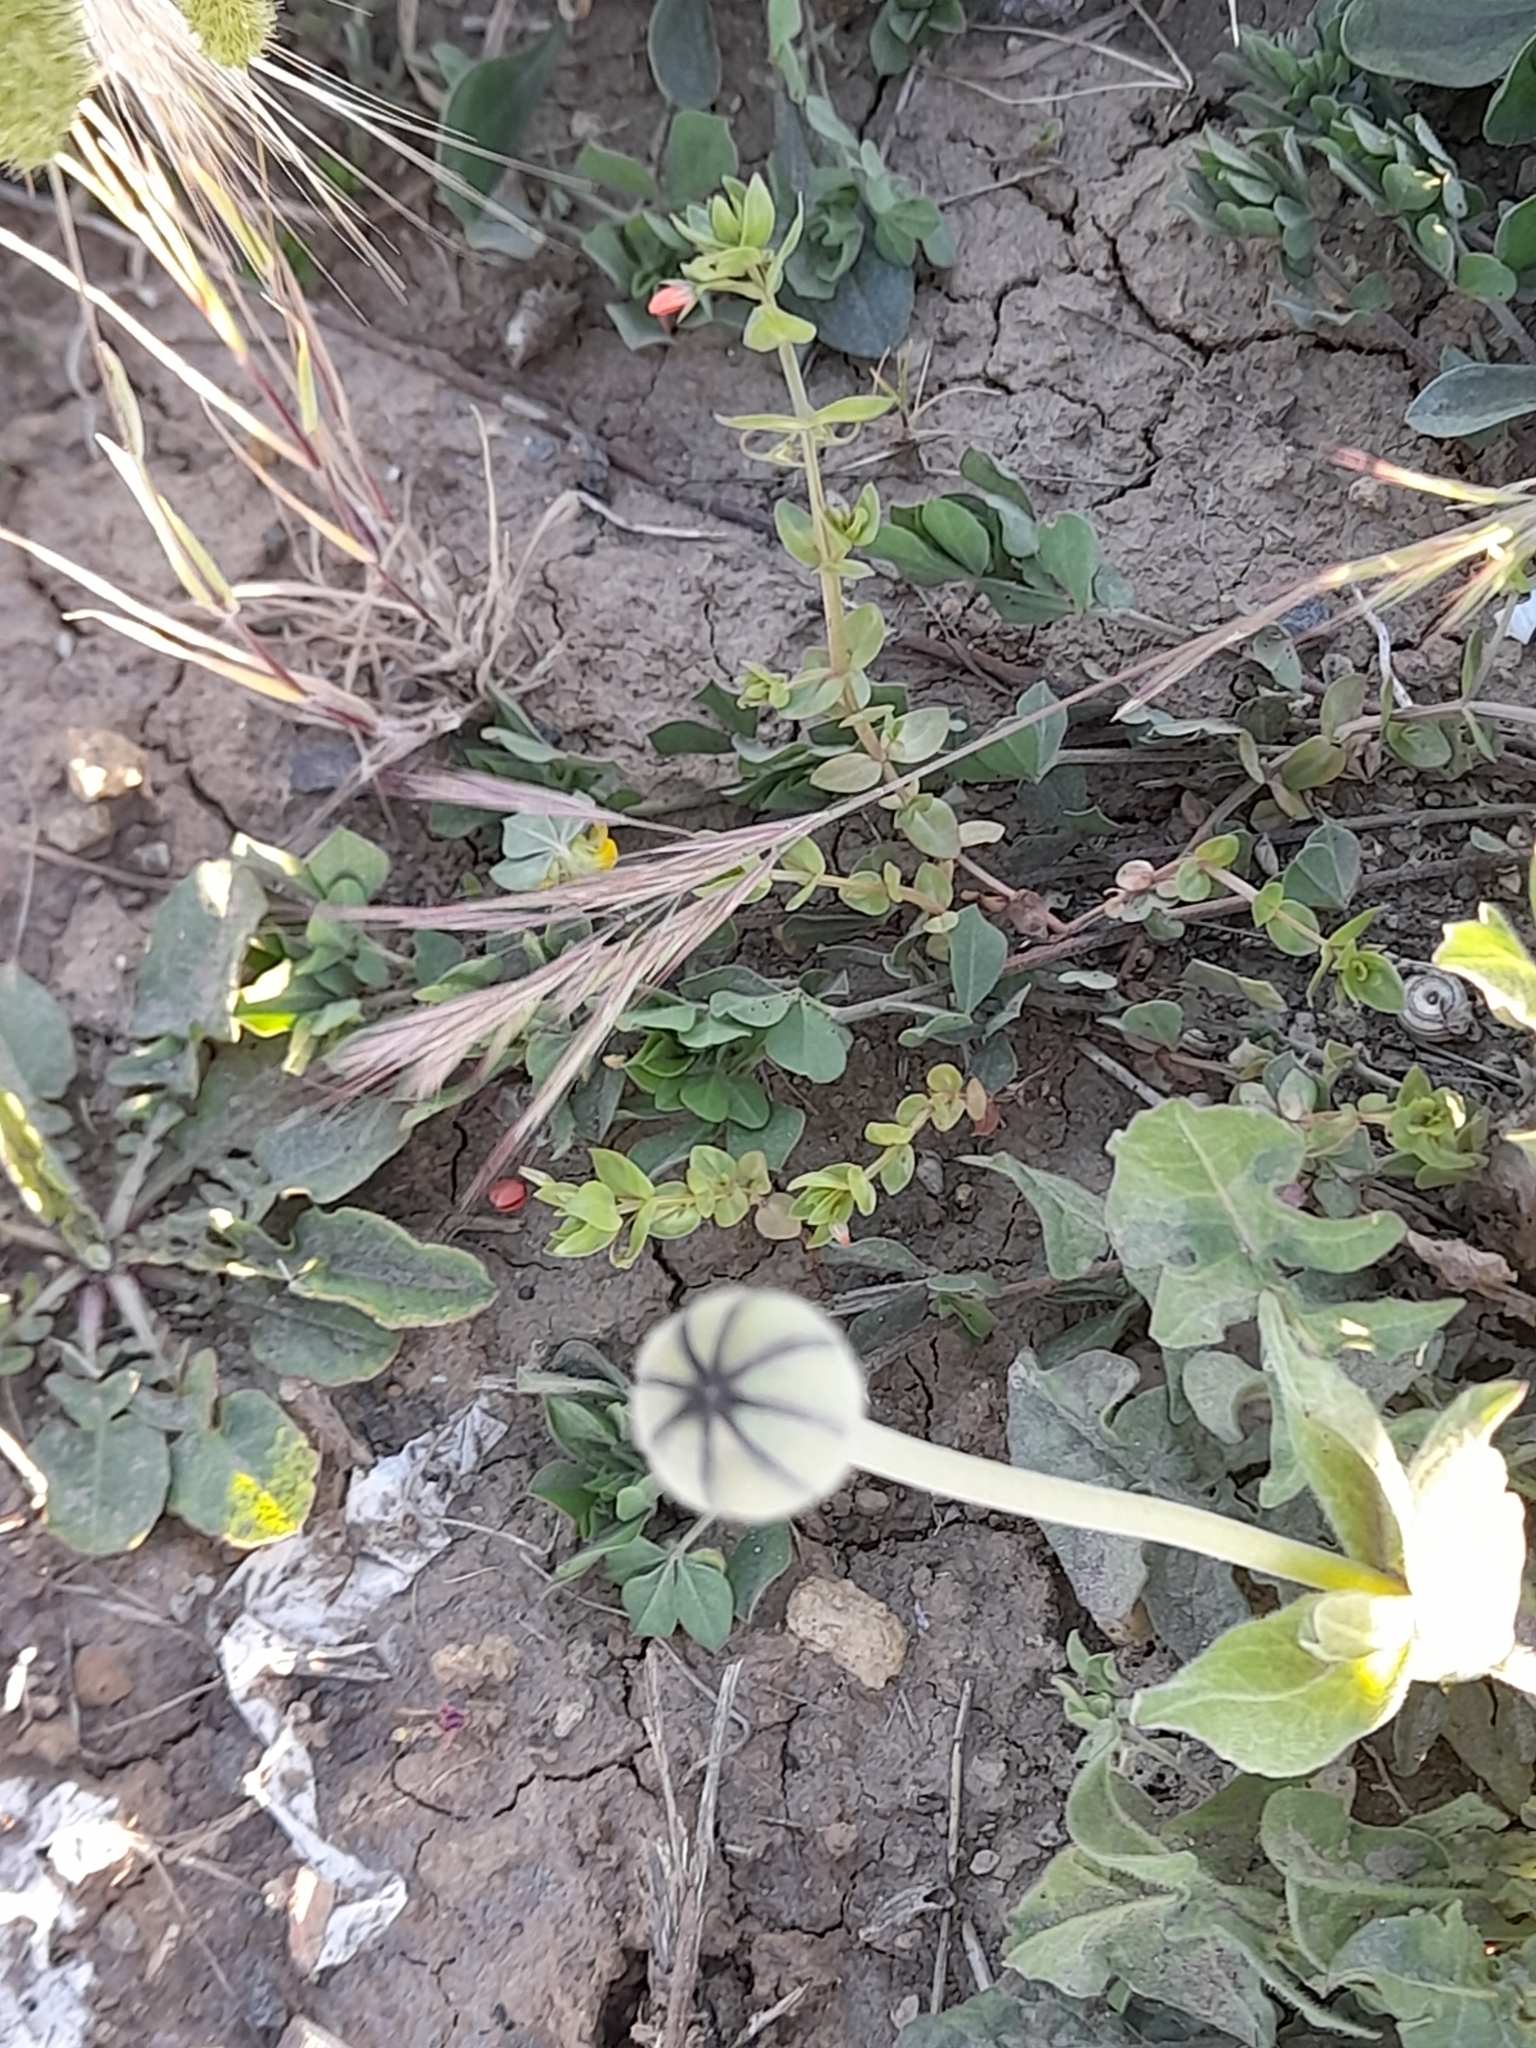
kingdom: Plantae
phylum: Tracheophyta
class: Magnoliopsida
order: Asterales
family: Asteraceae
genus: Urospermum
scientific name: Urospermum dalechampii
